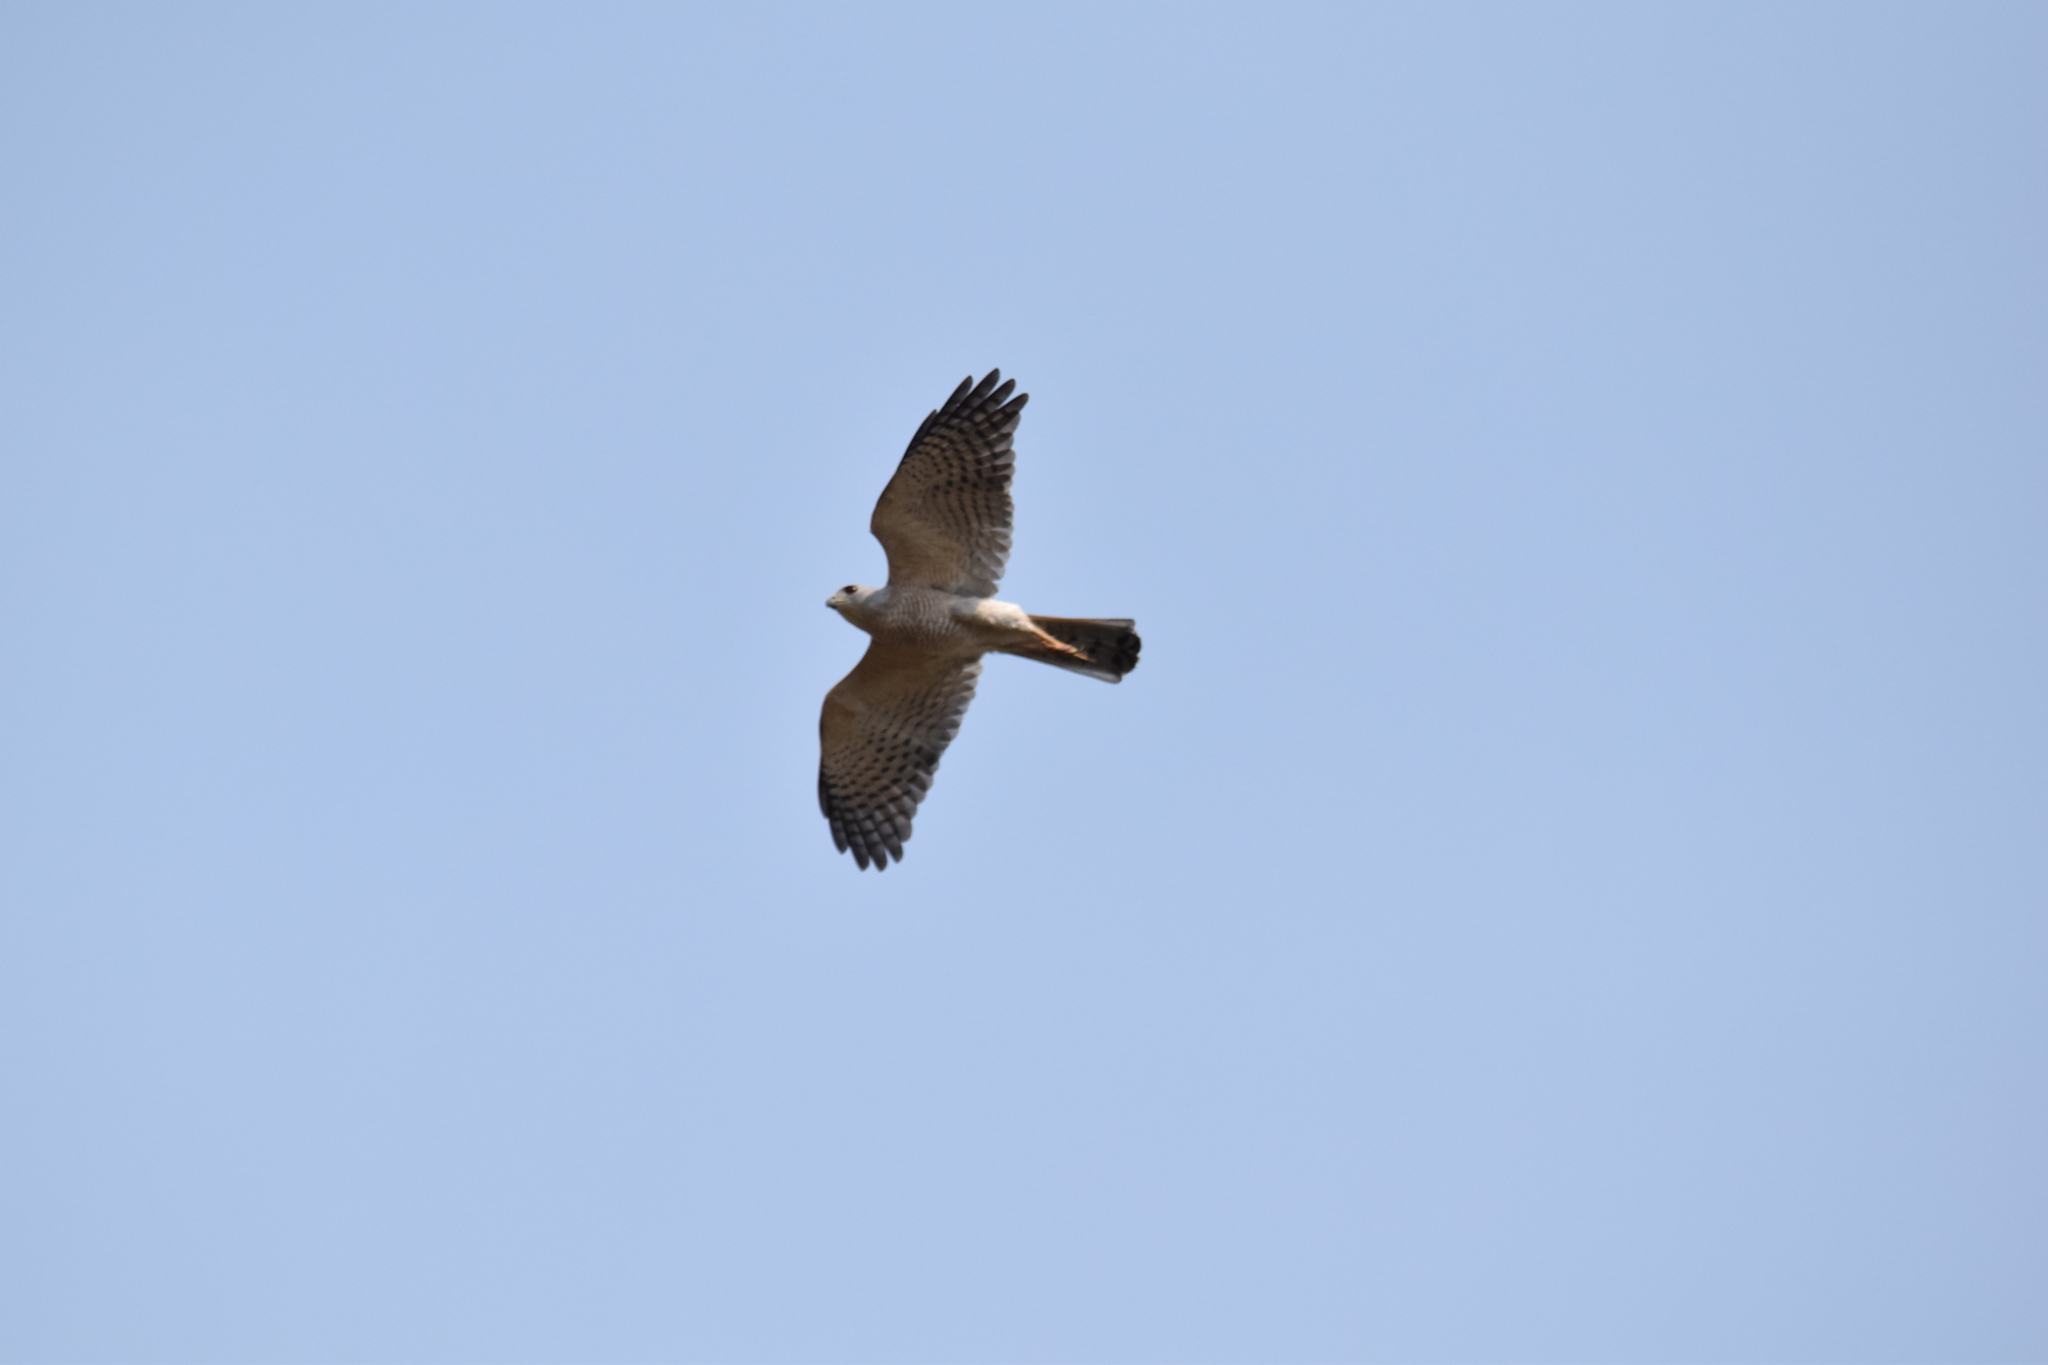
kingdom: Animalia
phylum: Chordata
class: Aves
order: Accipitriformes
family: Accipitridae
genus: Accipiter
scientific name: Accipiter badius
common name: Shikra
